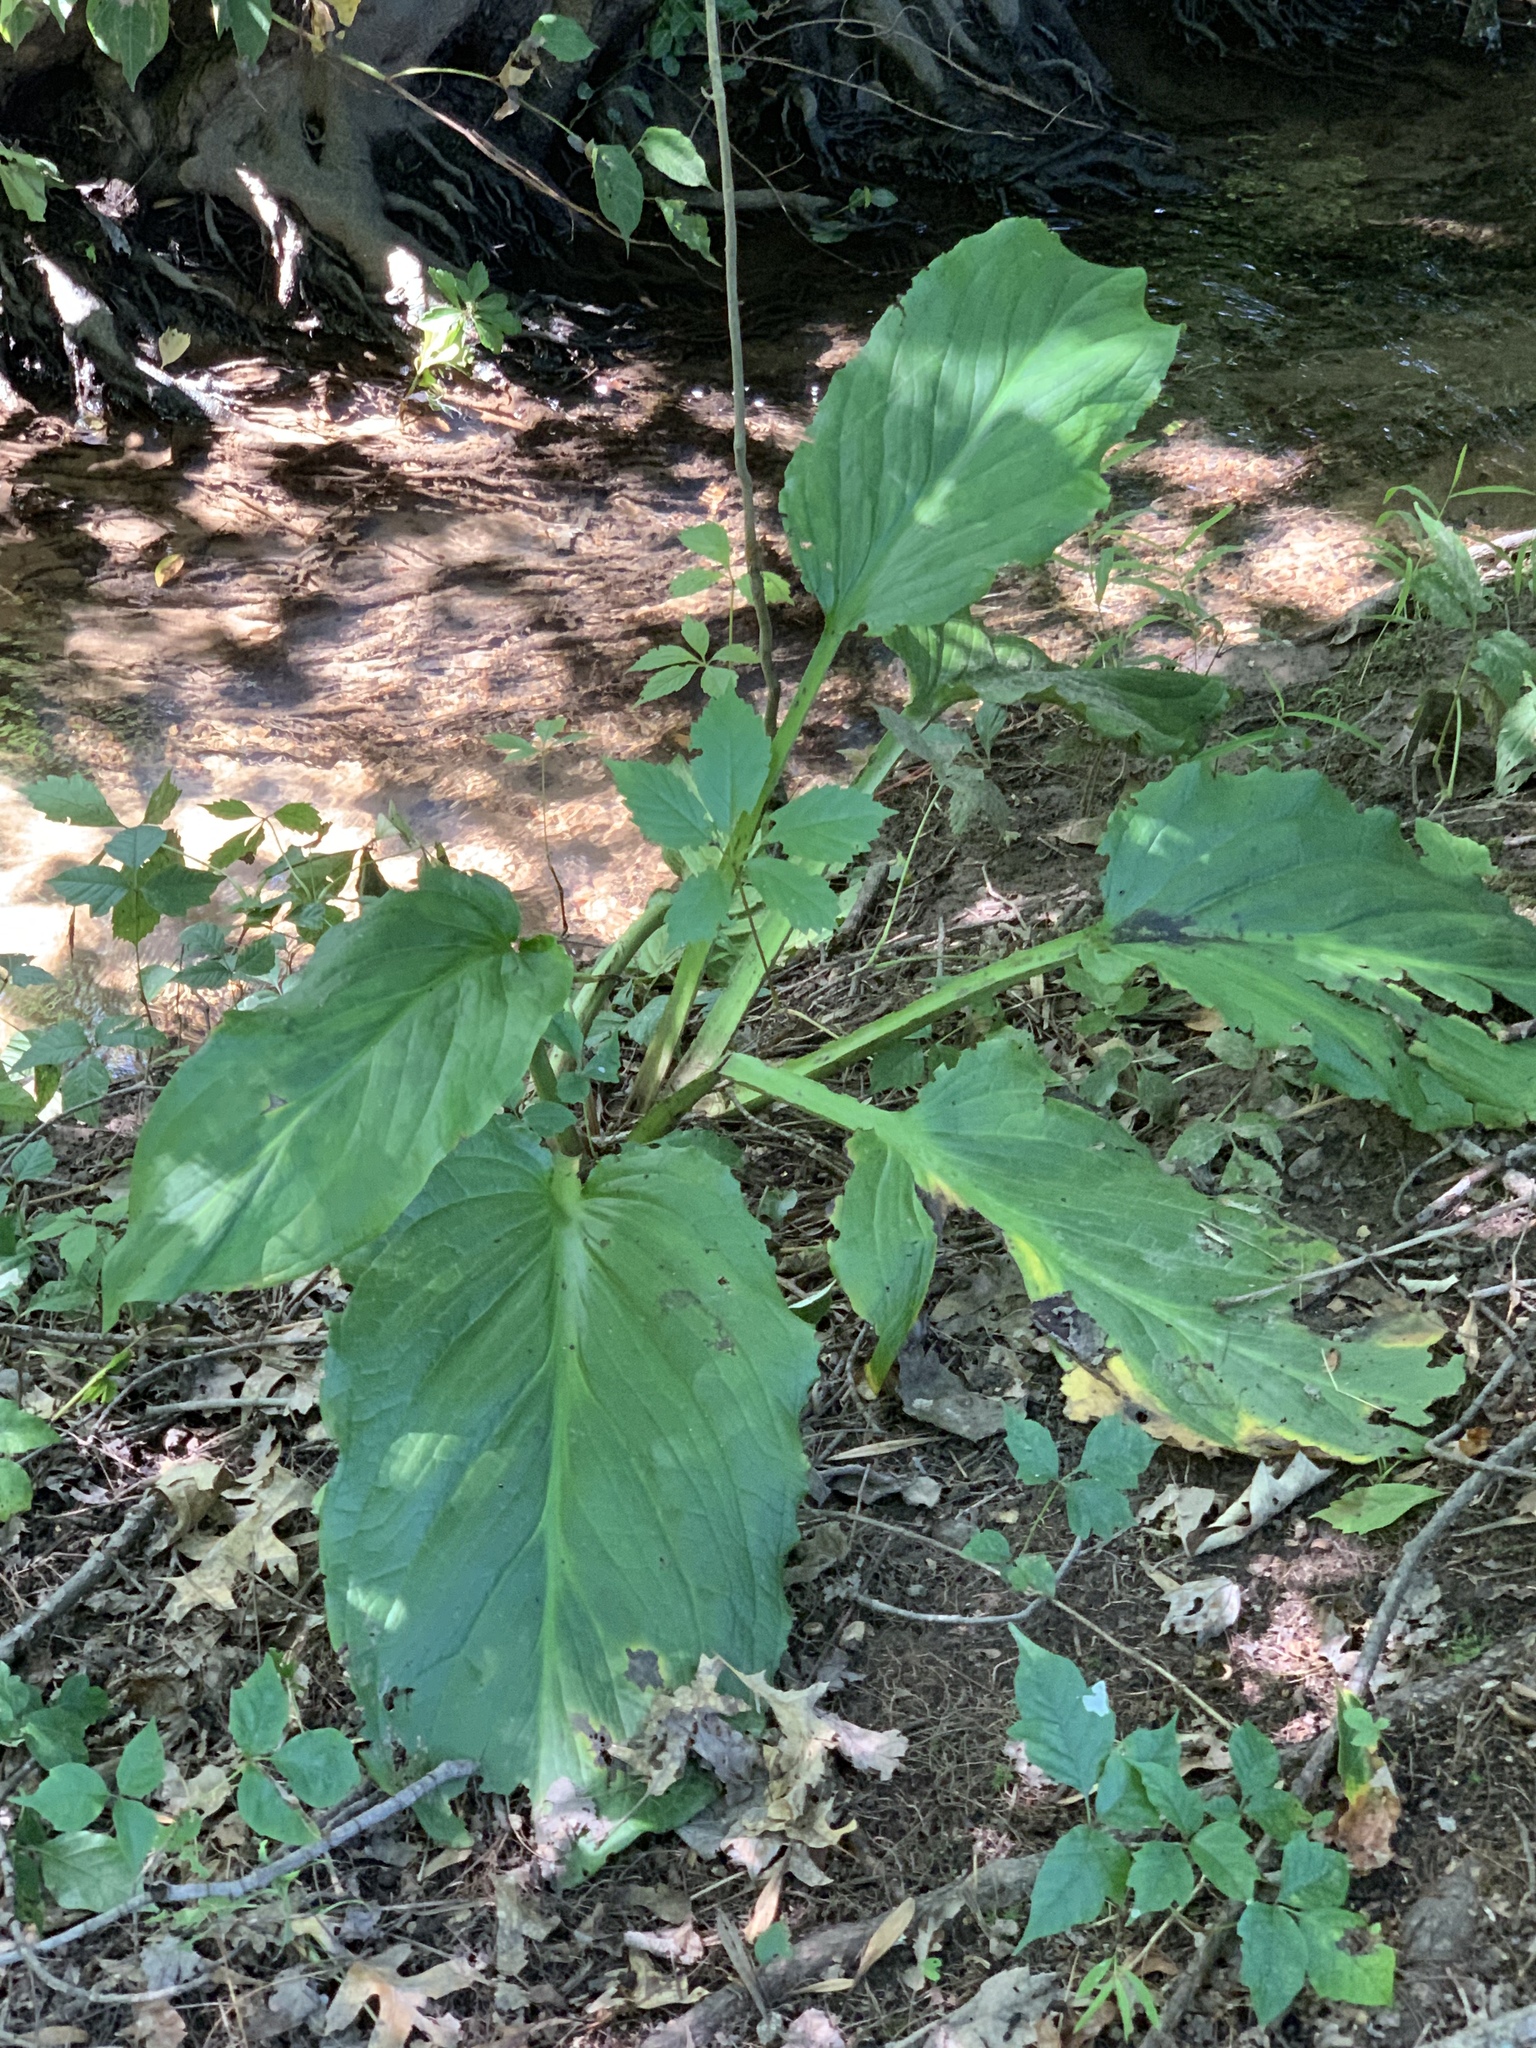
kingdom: Plantae
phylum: Tracheophyta
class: Liliopsida
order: Alismatales
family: Araceae
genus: Symplocarpus
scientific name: Symplocarpus foetidus
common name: Eastern skunk cabbage
